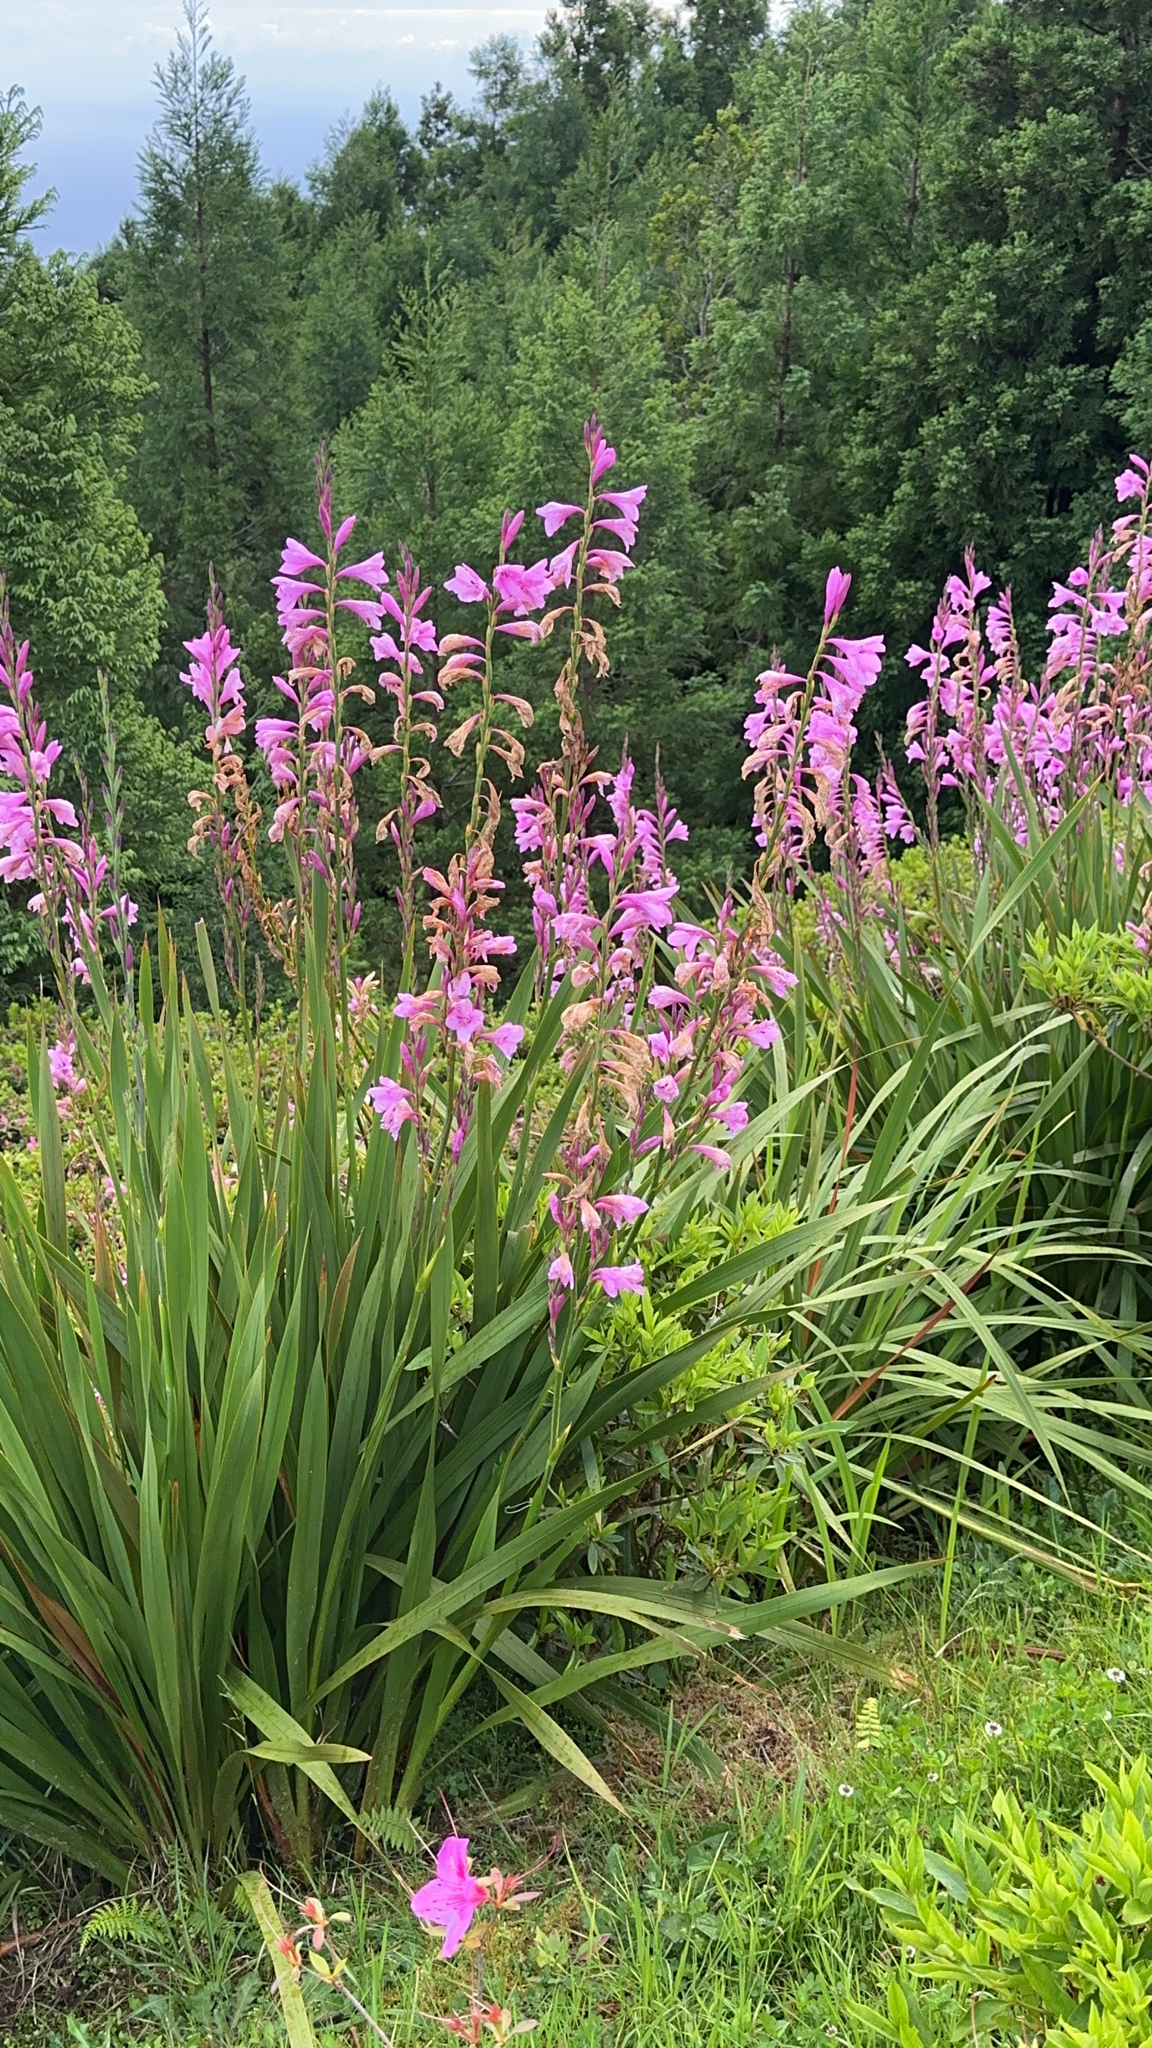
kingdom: Plantae
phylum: Tracheophyta
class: Liliopsida
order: Asparagales
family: Iridaceae
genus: Watsonia
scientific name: Watsonia borbonica
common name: Bugle-lily
